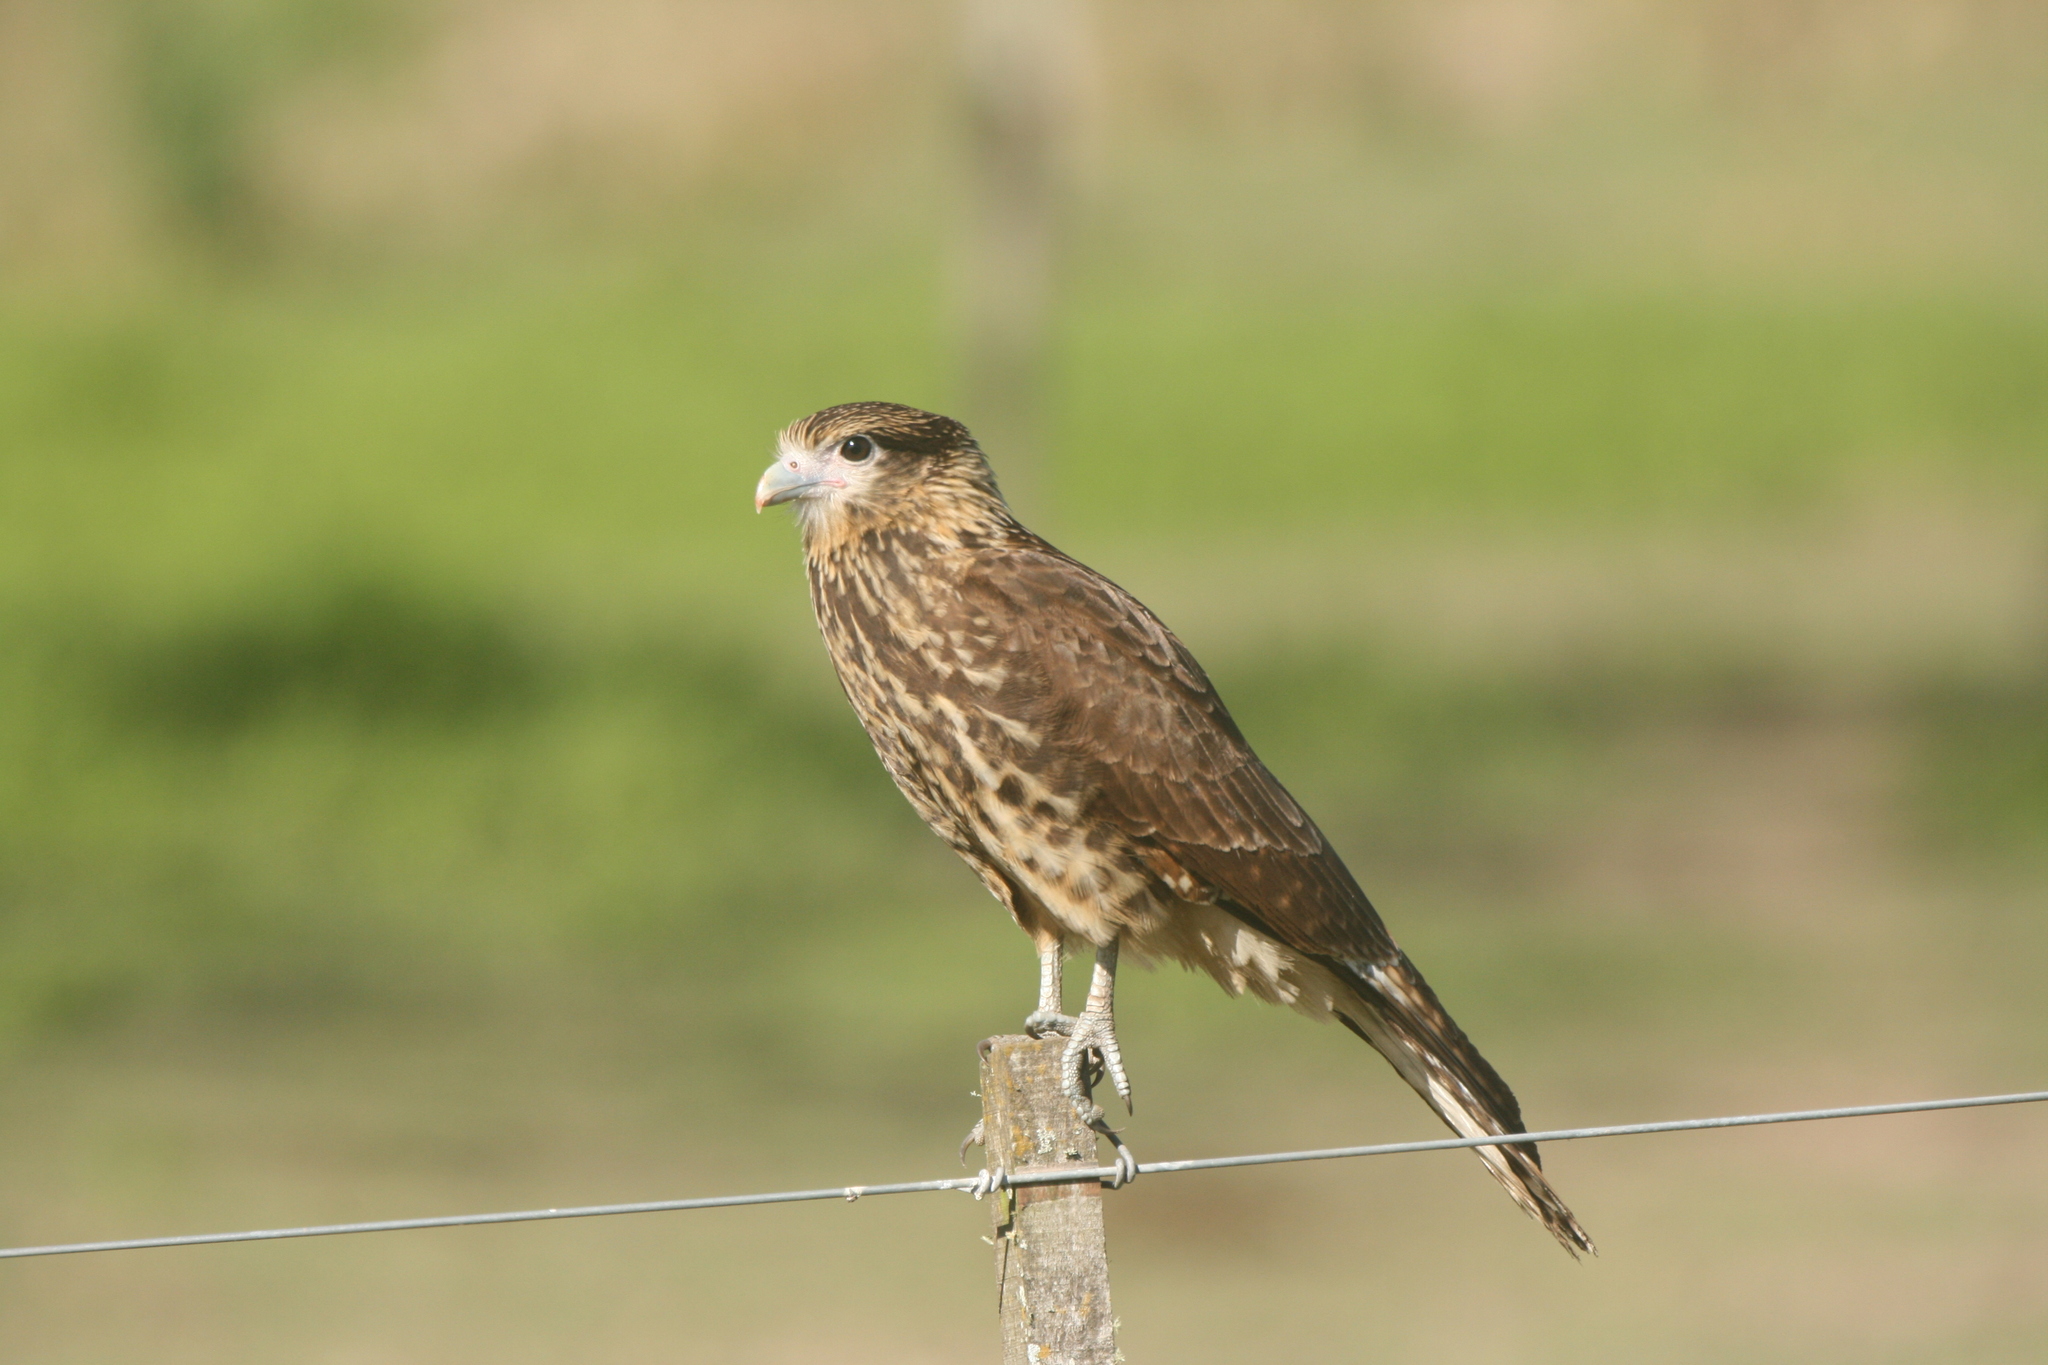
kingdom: Animalia
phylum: Chordata
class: Aves
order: Falconiformes
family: Falconidae
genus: Daptrius
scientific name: Daptrius
